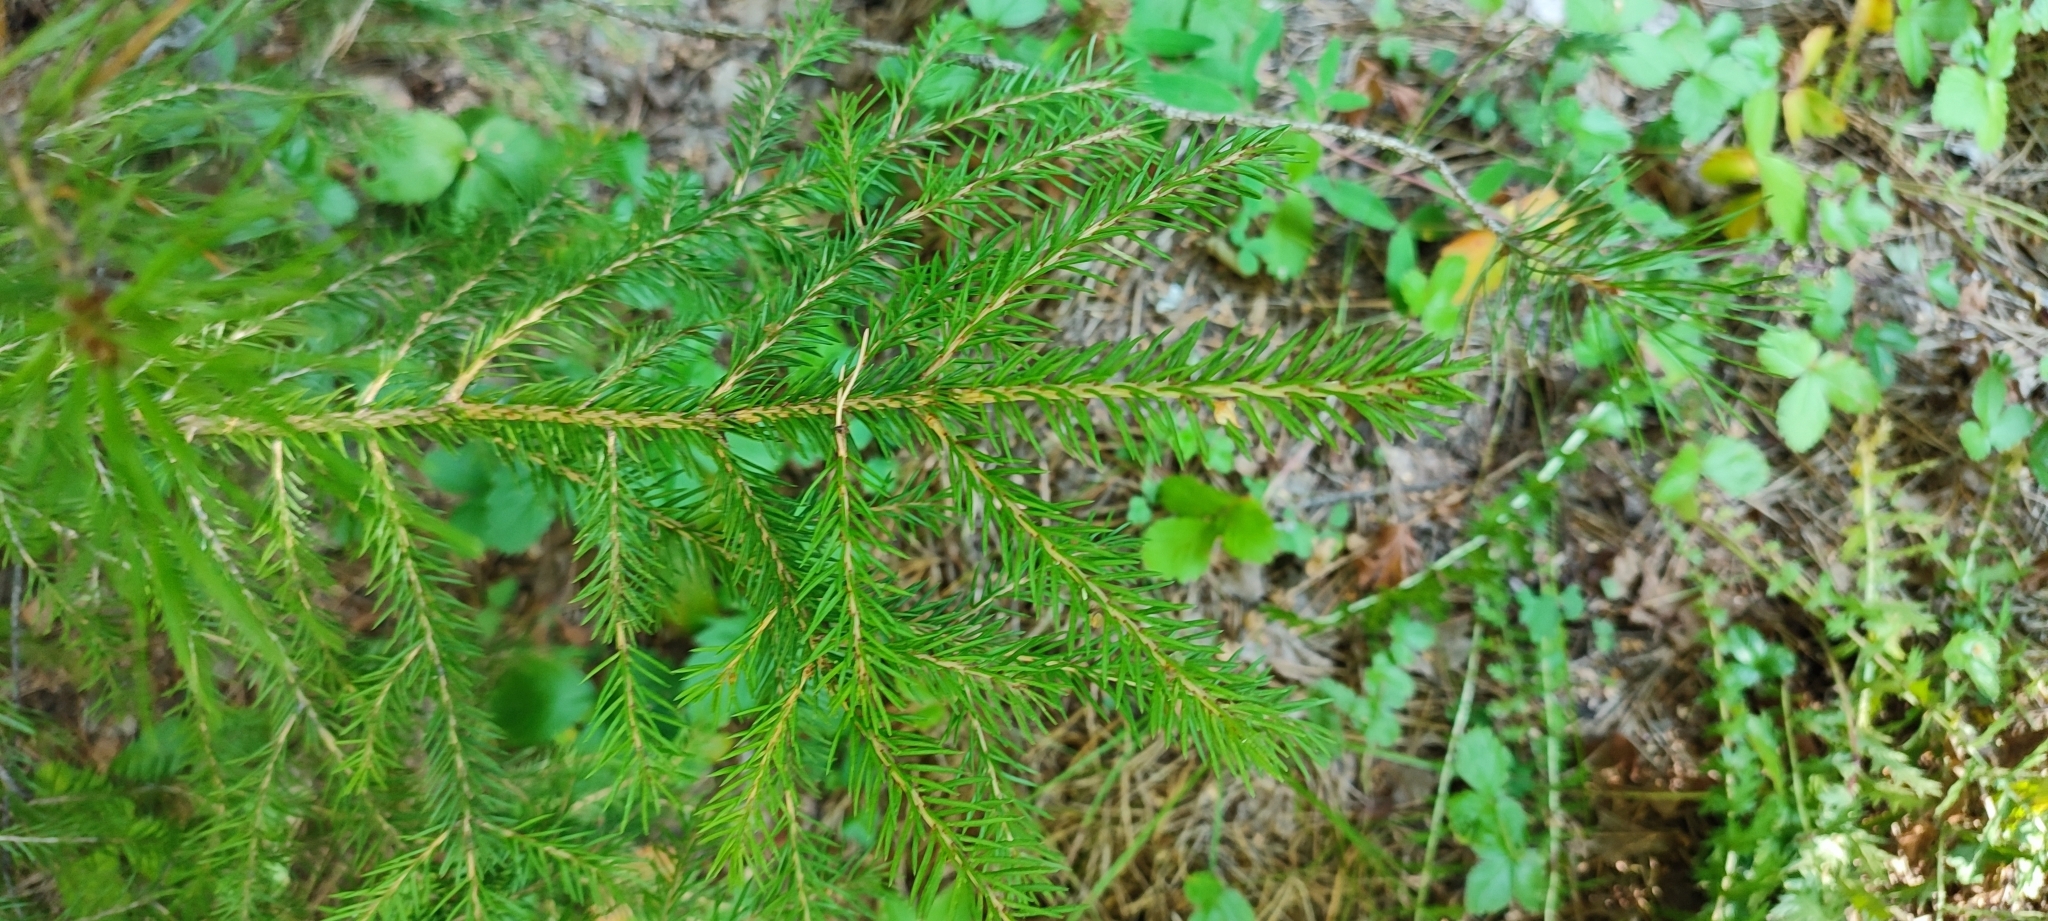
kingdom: Plantae
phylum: Tracheophyta
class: Pinopsida
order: Pinales
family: Pinaceae
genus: Picea
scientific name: Picea obovata
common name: Siberian spruce
